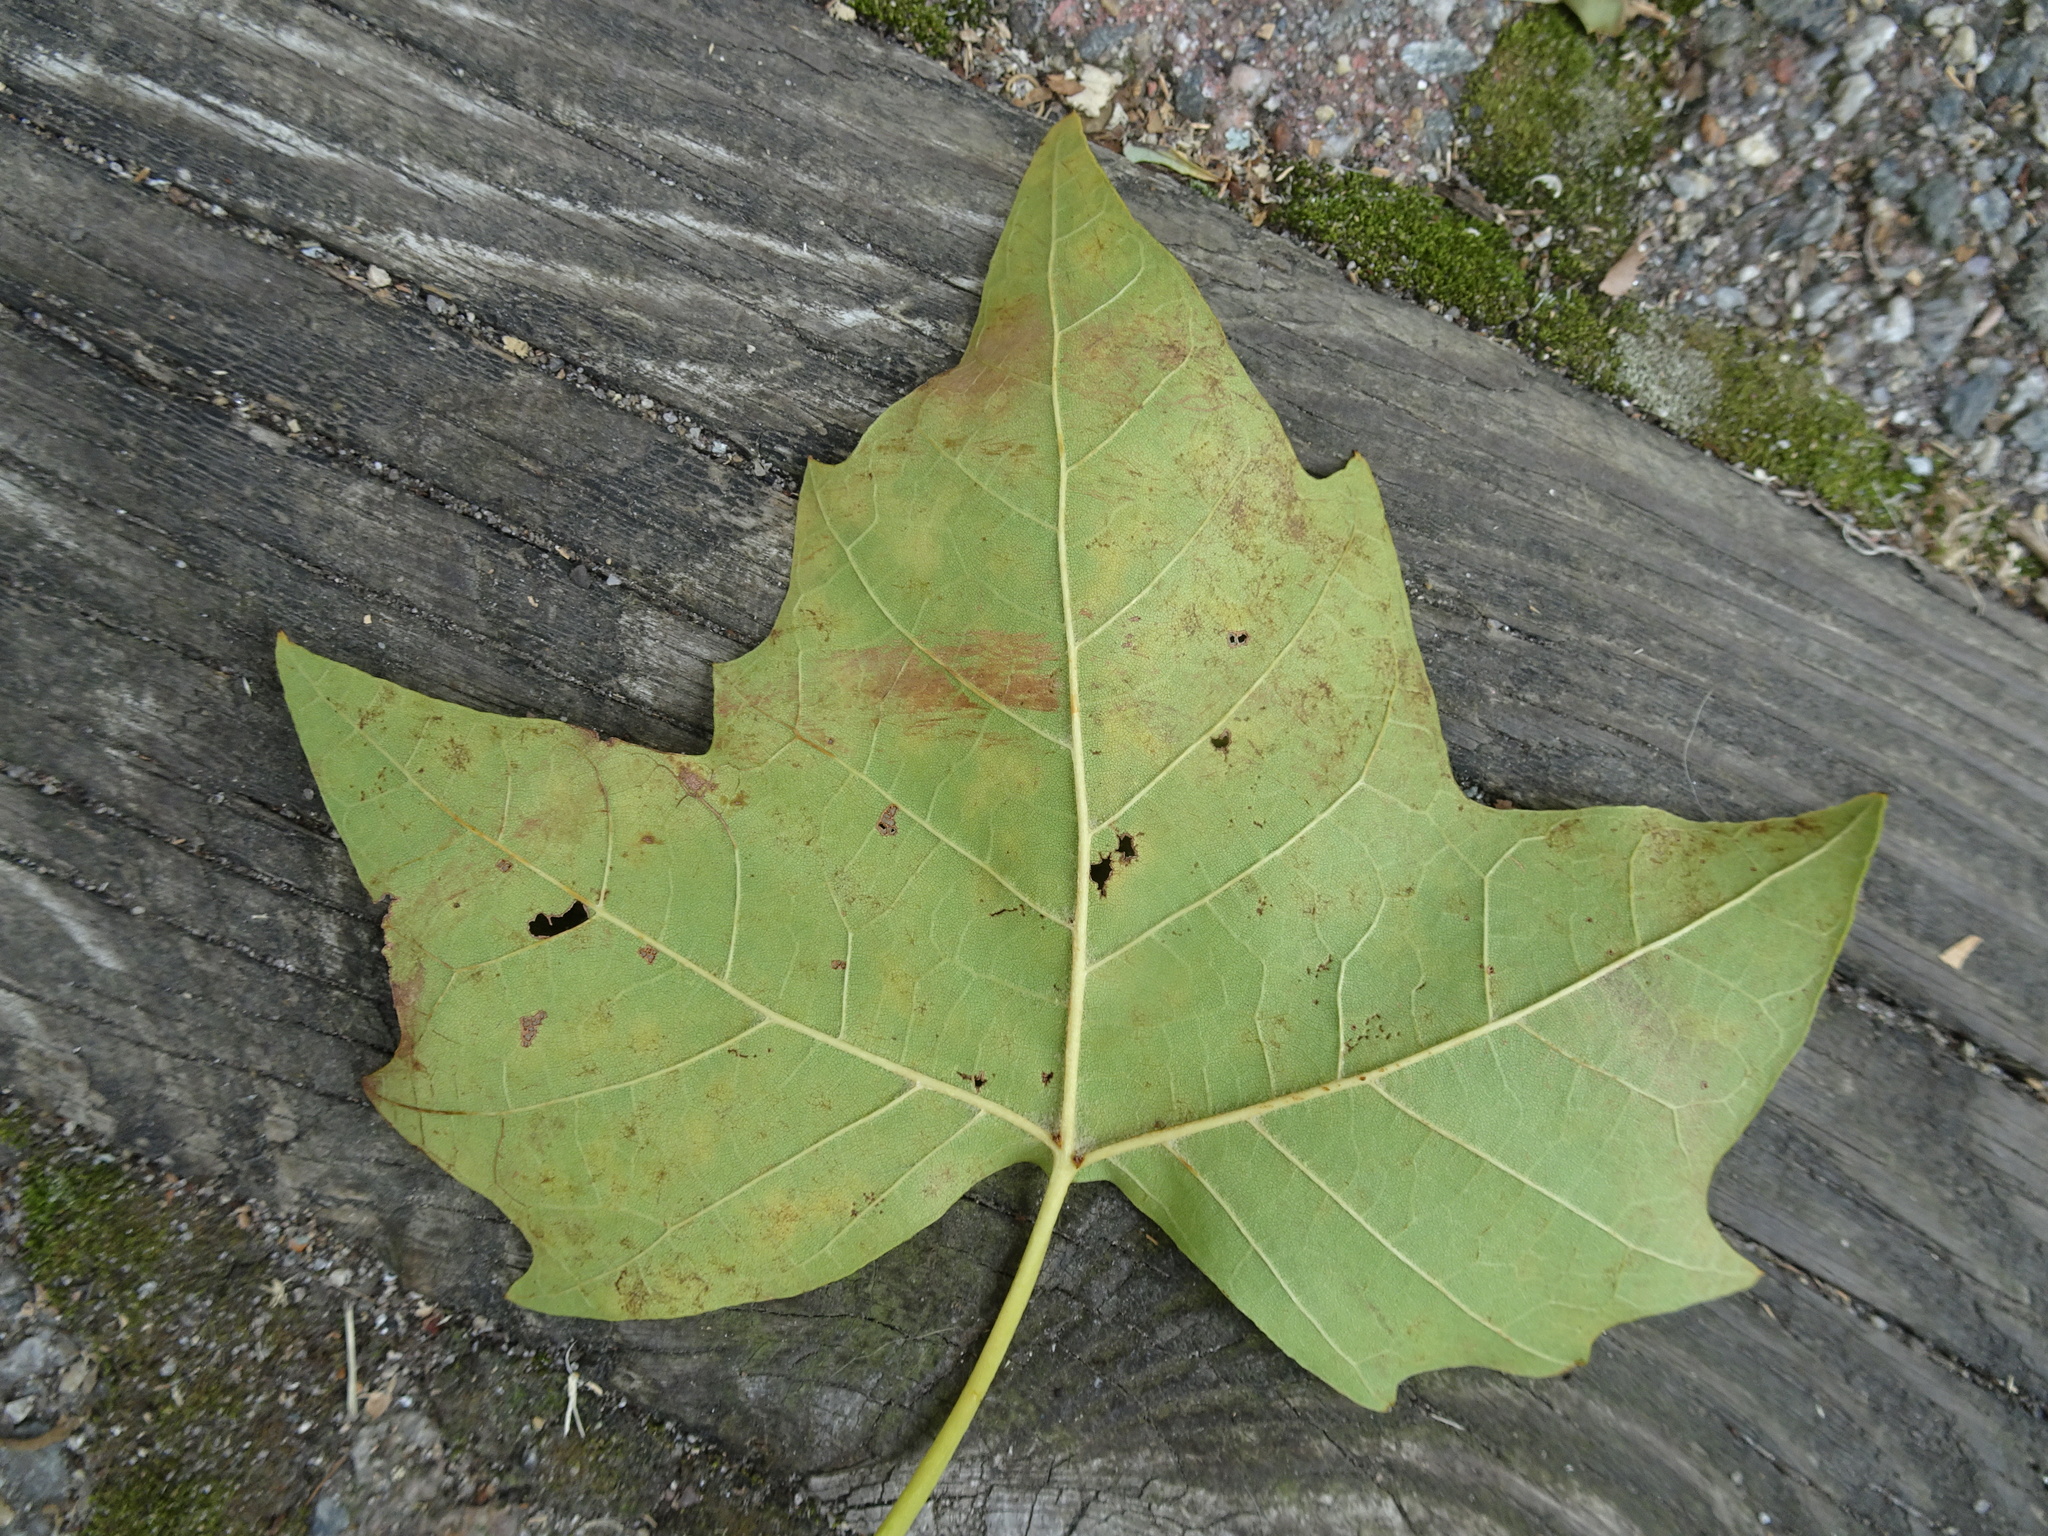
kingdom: Plantae
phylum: Tracheophyta
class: Magnoliopsida
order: Proteales
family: Platanaceae
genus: Platanus
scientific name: Platanus occidentalis
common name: American sycamore
